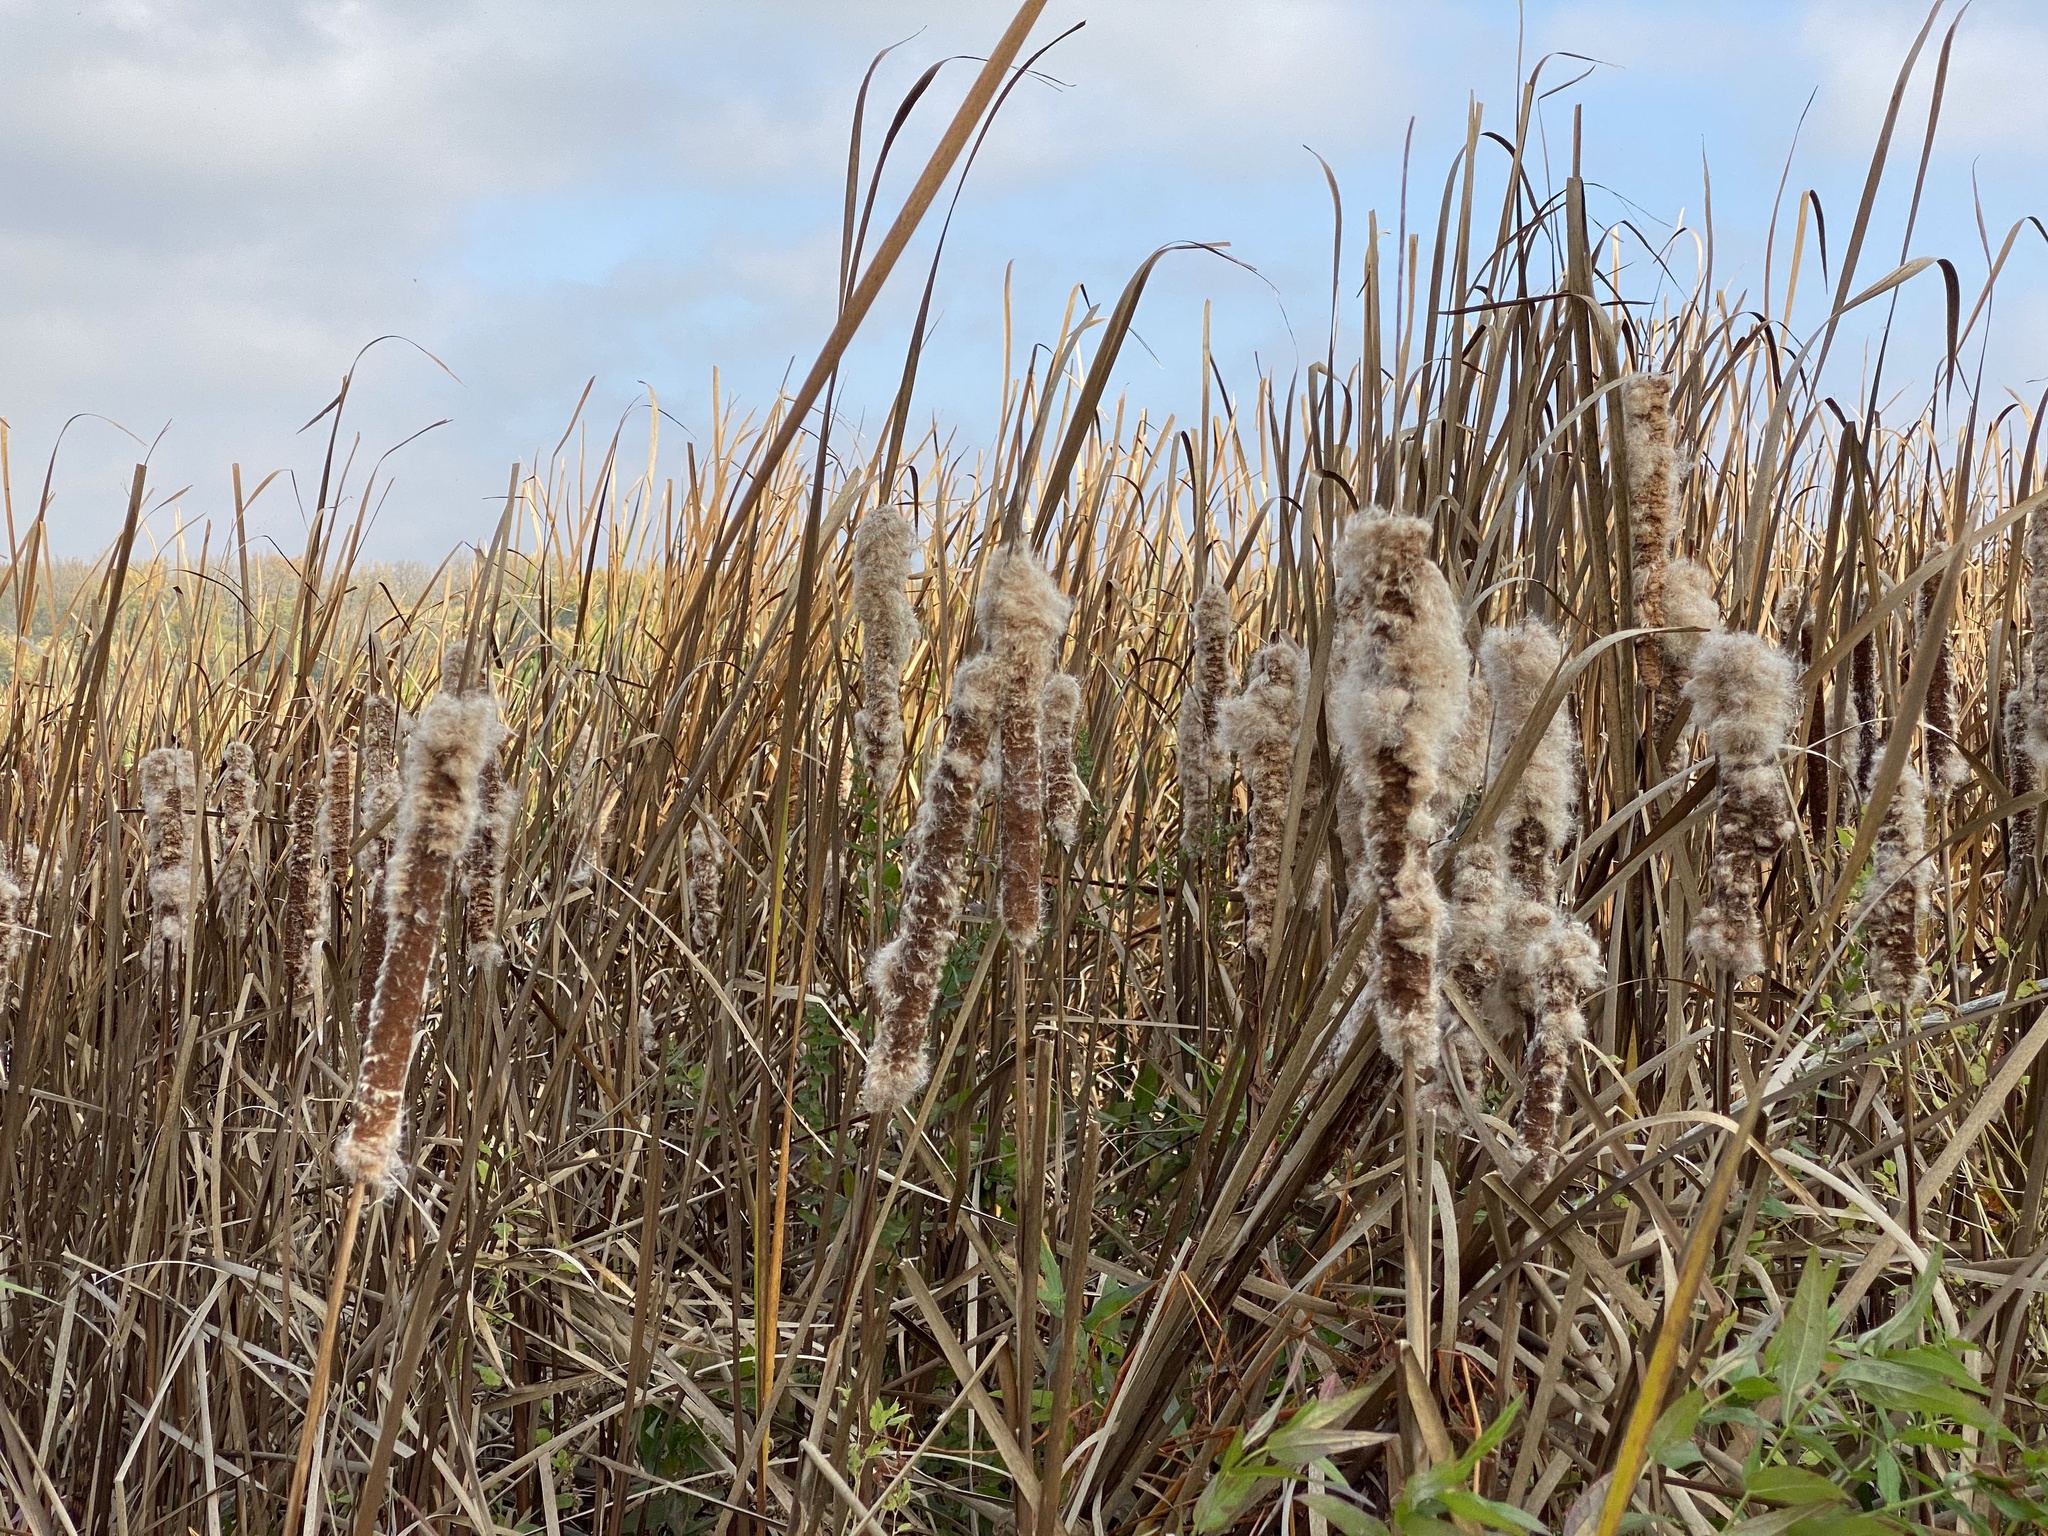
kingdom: Plantae
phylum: Tracheophyta
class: Liliopsida
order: Poales
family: Typhaceae
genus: Typha
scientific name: Typha latifolia
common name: Broadleaf cattail
